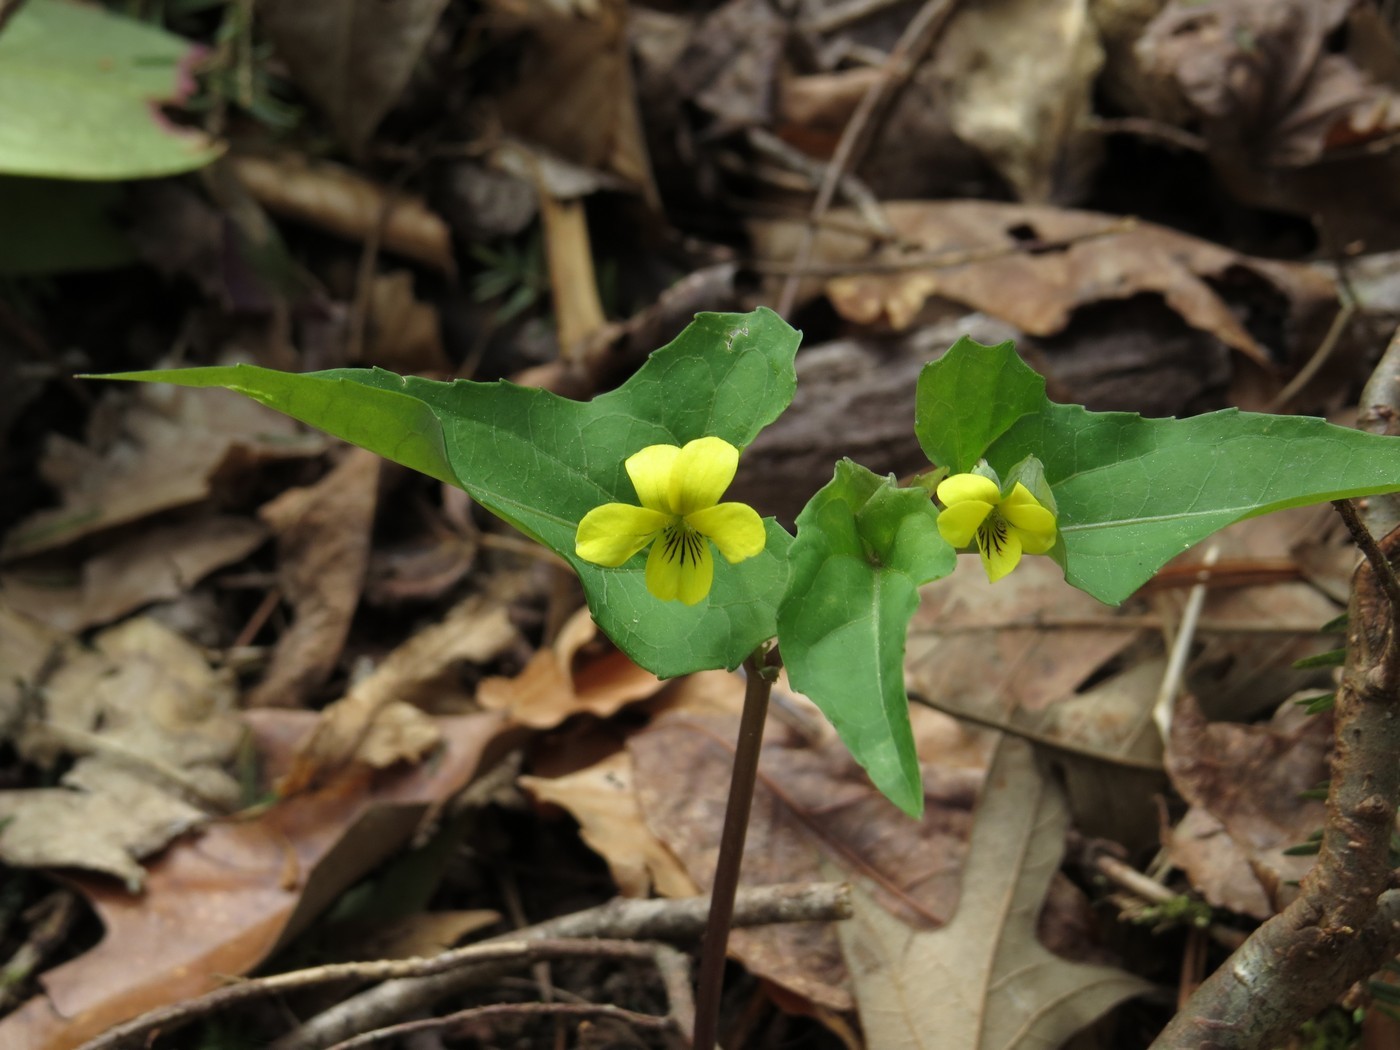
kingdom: Plantae
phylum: Tracheophyta
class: Magnoliopsida
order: Malpighiales
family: Violaceae
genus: Viola
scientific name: Viola hastata
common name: Spear-leaf violet
